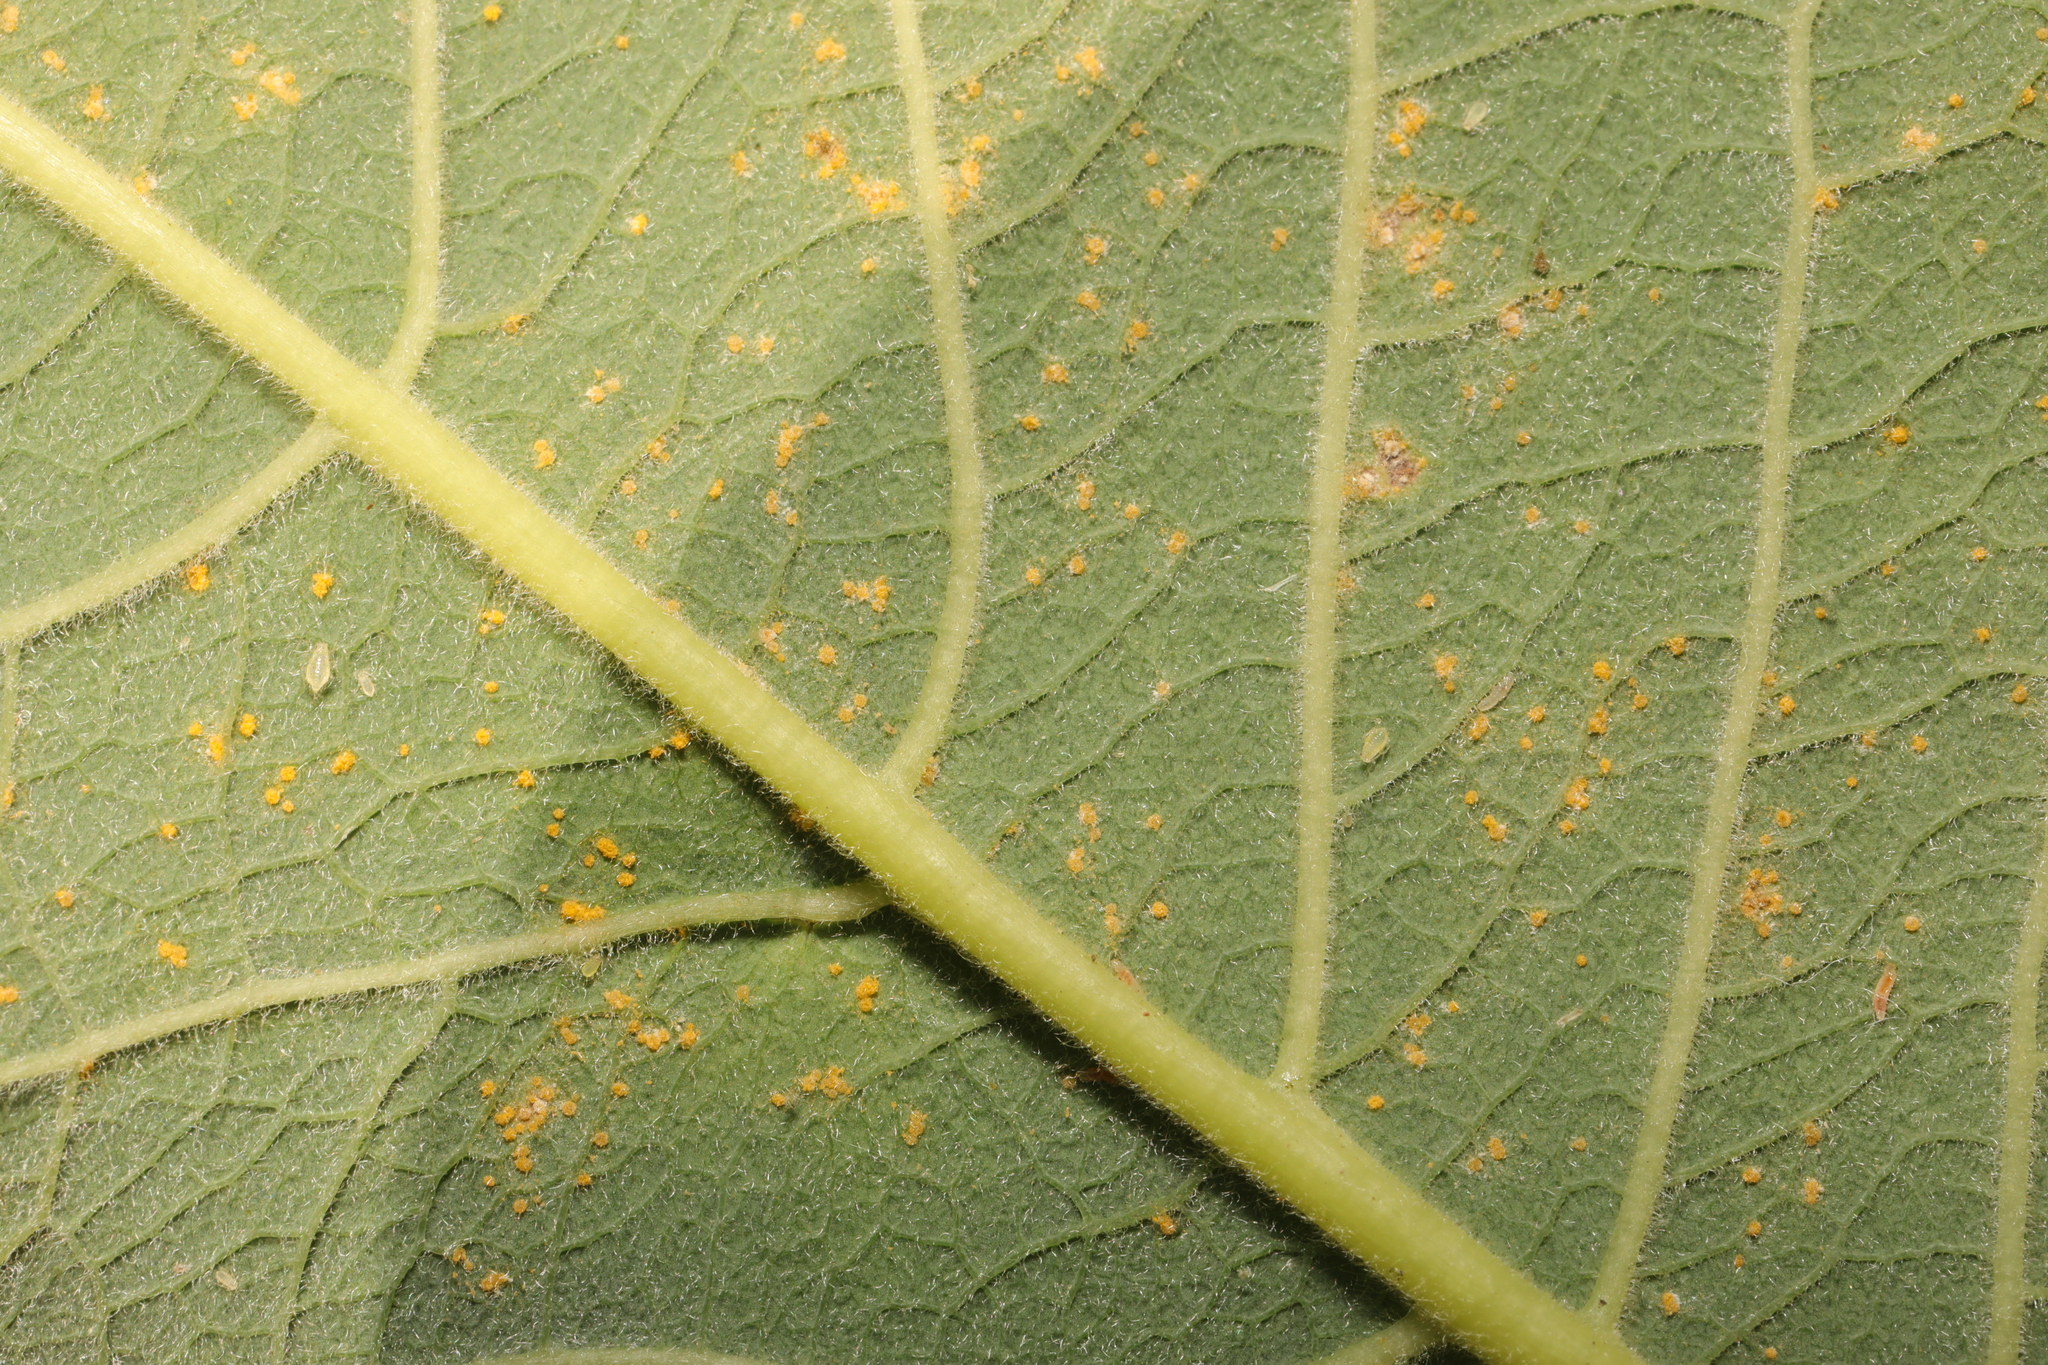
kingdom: Fungi
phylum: Basidiomycota
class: Pucciniomycetes
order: Pucciniales
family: Melampsoraceae
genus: Melampsora
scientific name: Melampsora
